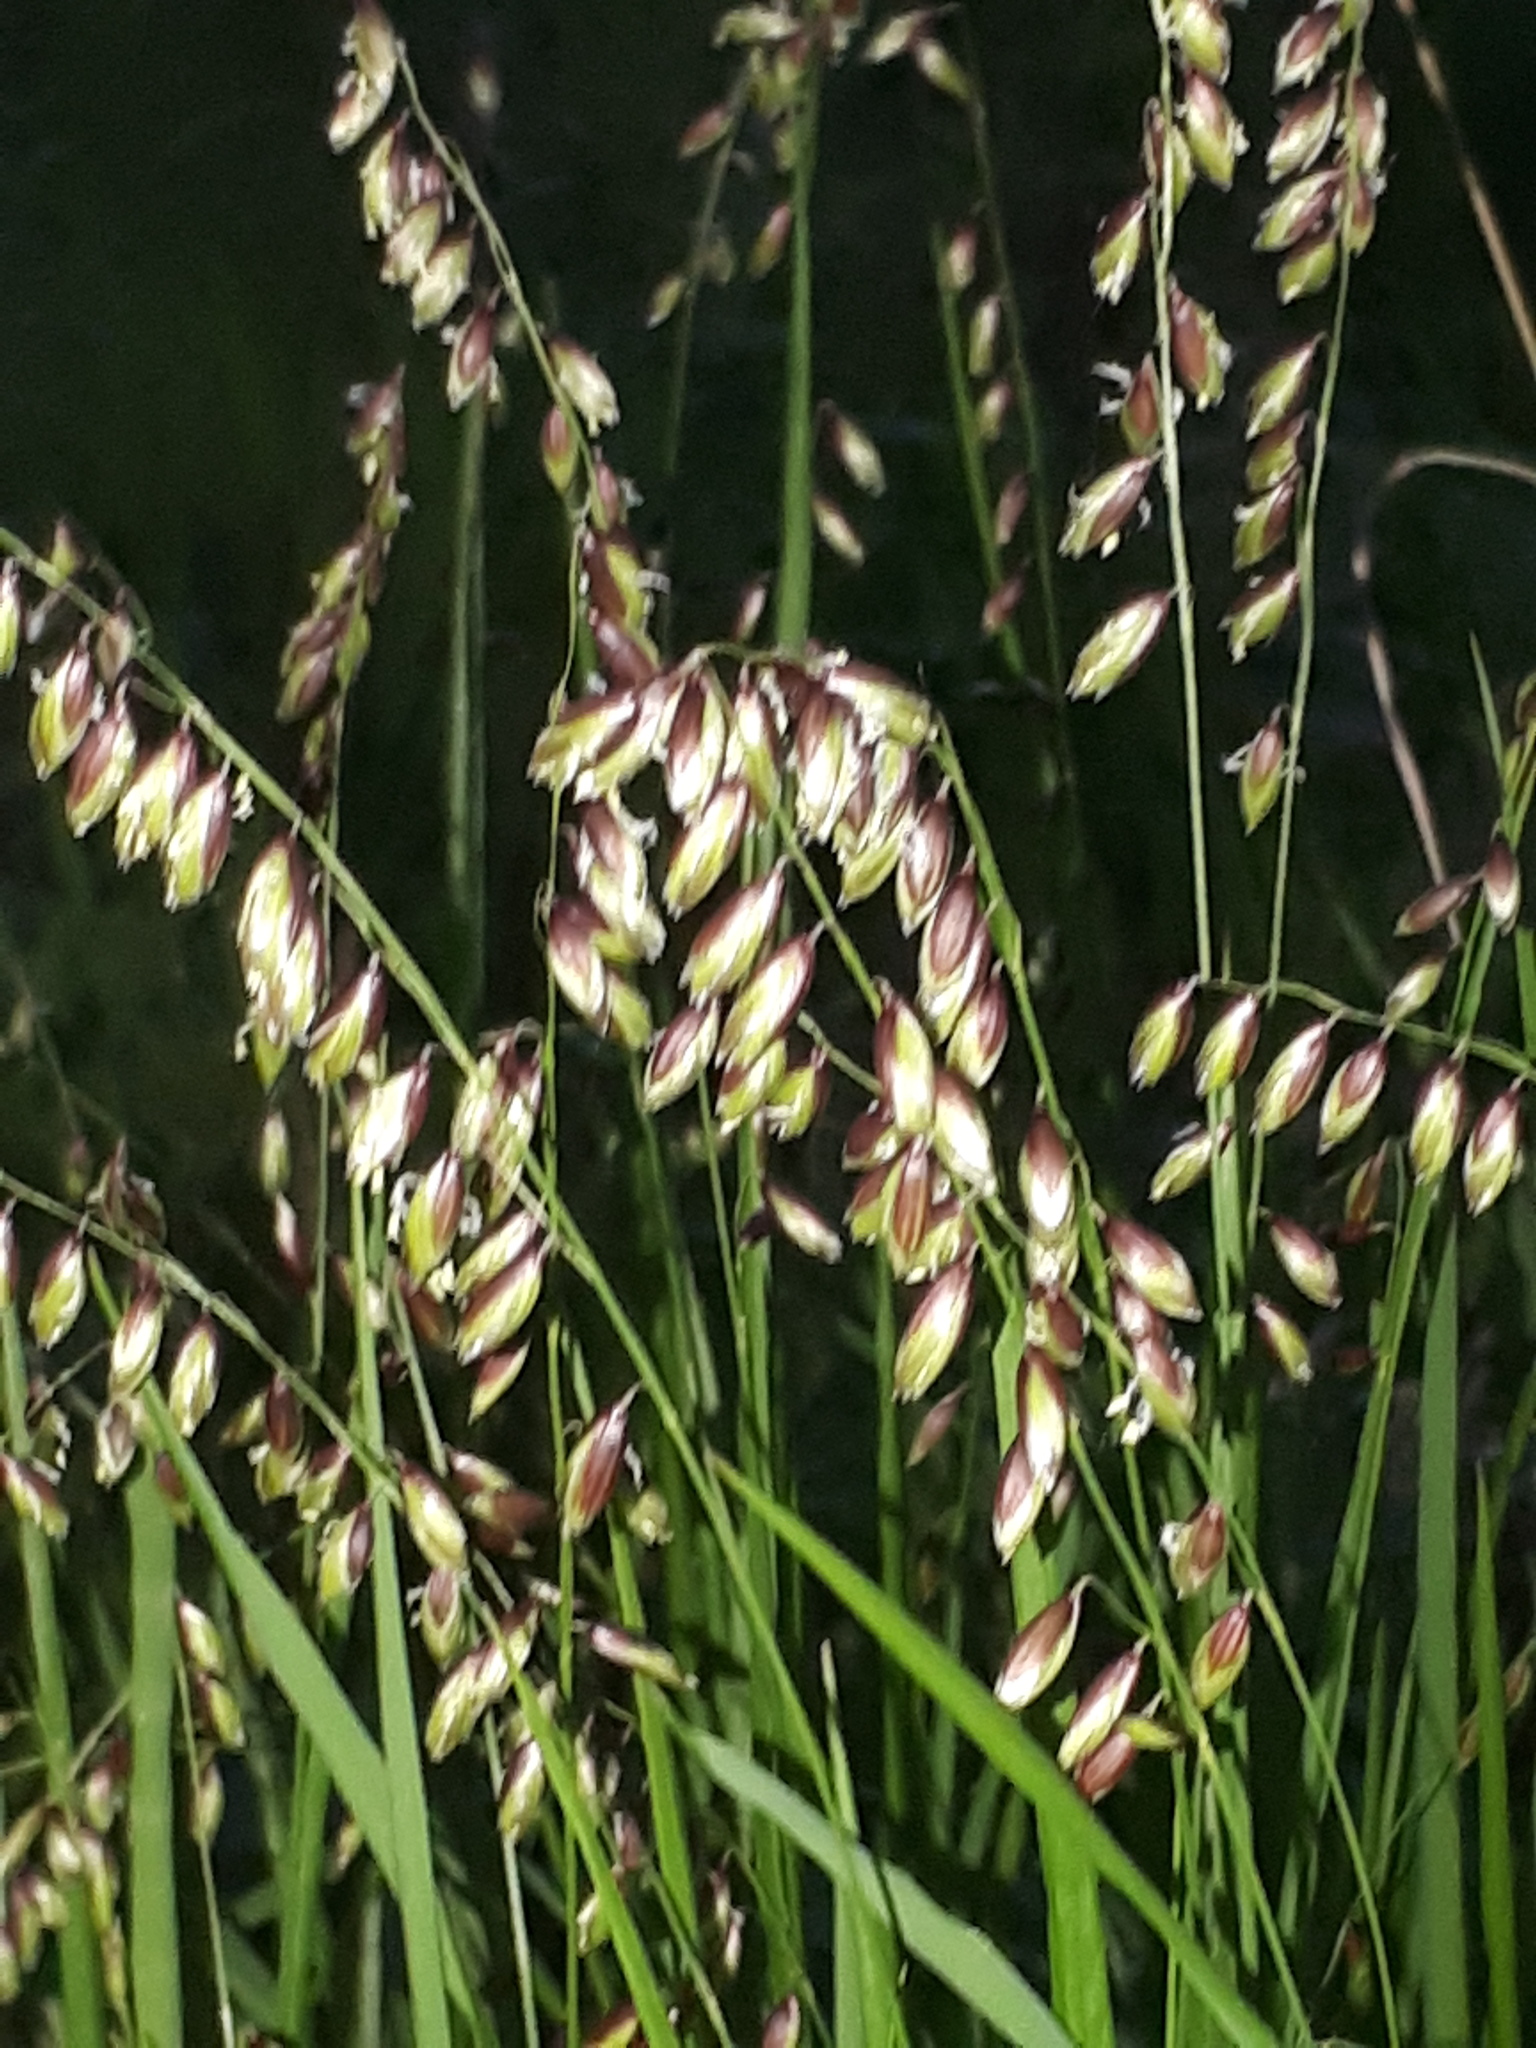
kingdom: Plantae
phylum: Tracheophyta
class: Liliopsida
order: Poales
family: Poaceae
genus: Melica
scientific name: Melica nutans
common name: Mountain melick
